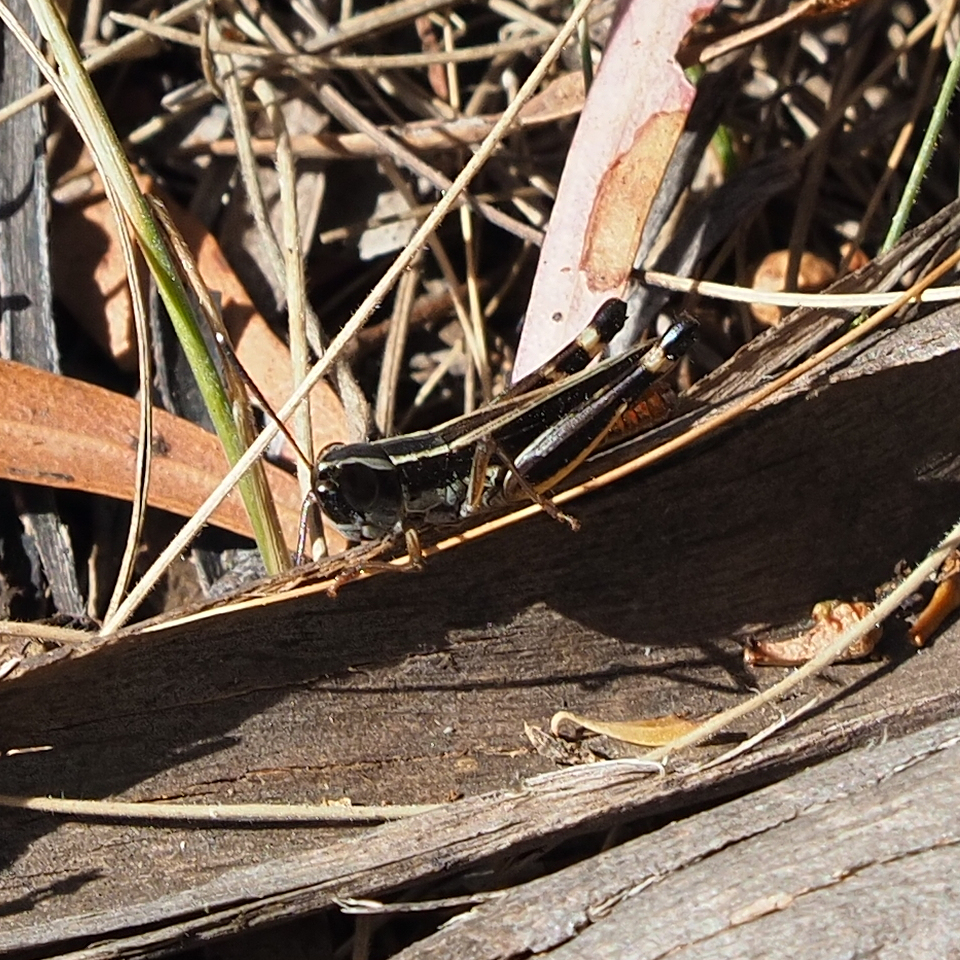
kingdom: Animalia
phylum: Arthropoda
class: Insecta
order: Orthoptera
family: Acrididae
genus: Macrotona
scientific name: Macrotona australis
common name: Common macrotona
